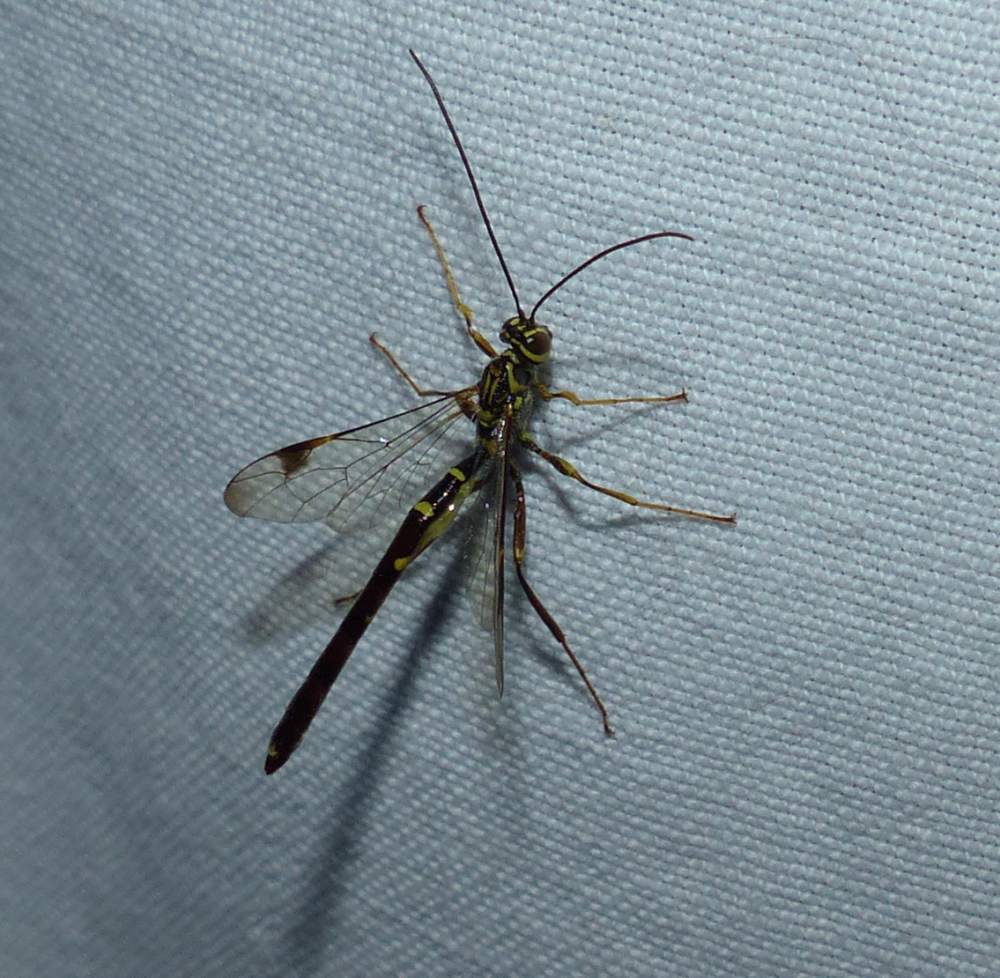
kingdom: Animalia
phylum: Arthropoda
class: Insecta
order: Hymenoptera
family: Ichneumonidae
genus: Megarhyssa
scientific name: Megarhyssa macrura
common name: Long-tailed giant ichneumonid wasp
